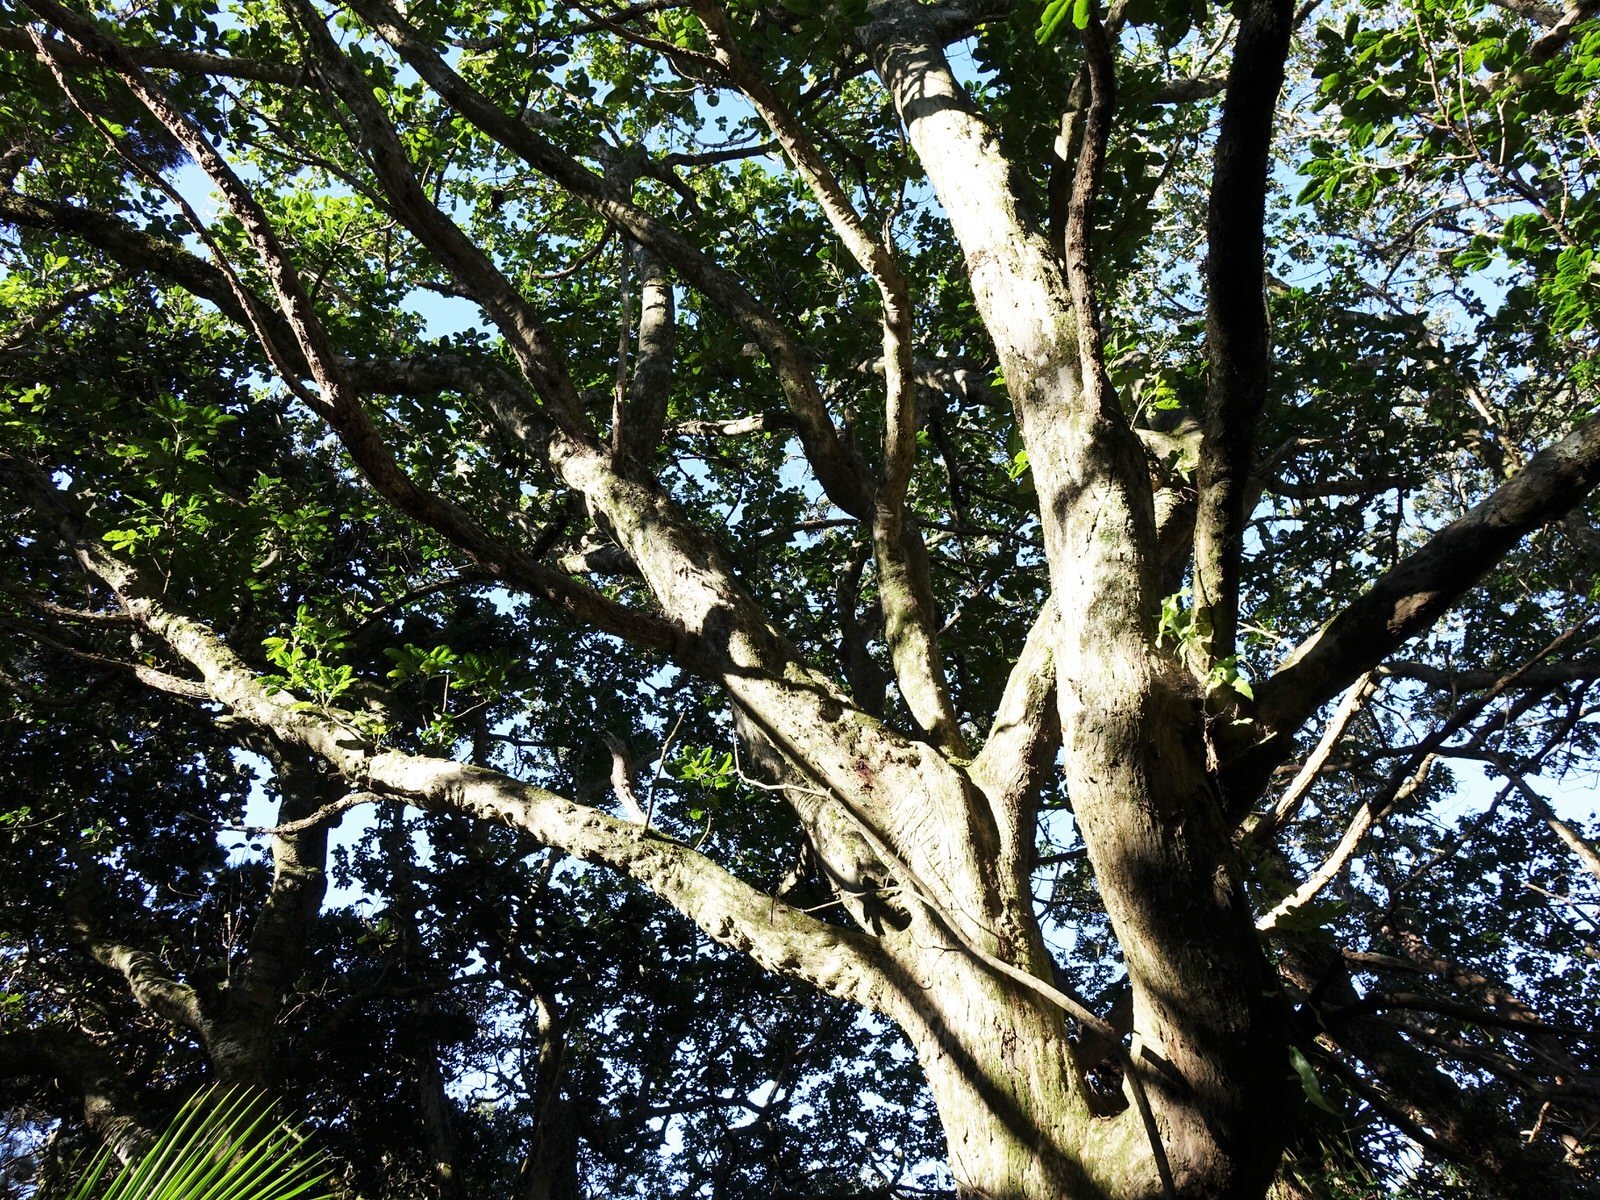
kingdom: Plantae
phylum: Tracheophyta
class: Magnoliopsida
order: Lamiales
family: Lamiaceae
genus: Vitex
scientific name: Vitex lucens
